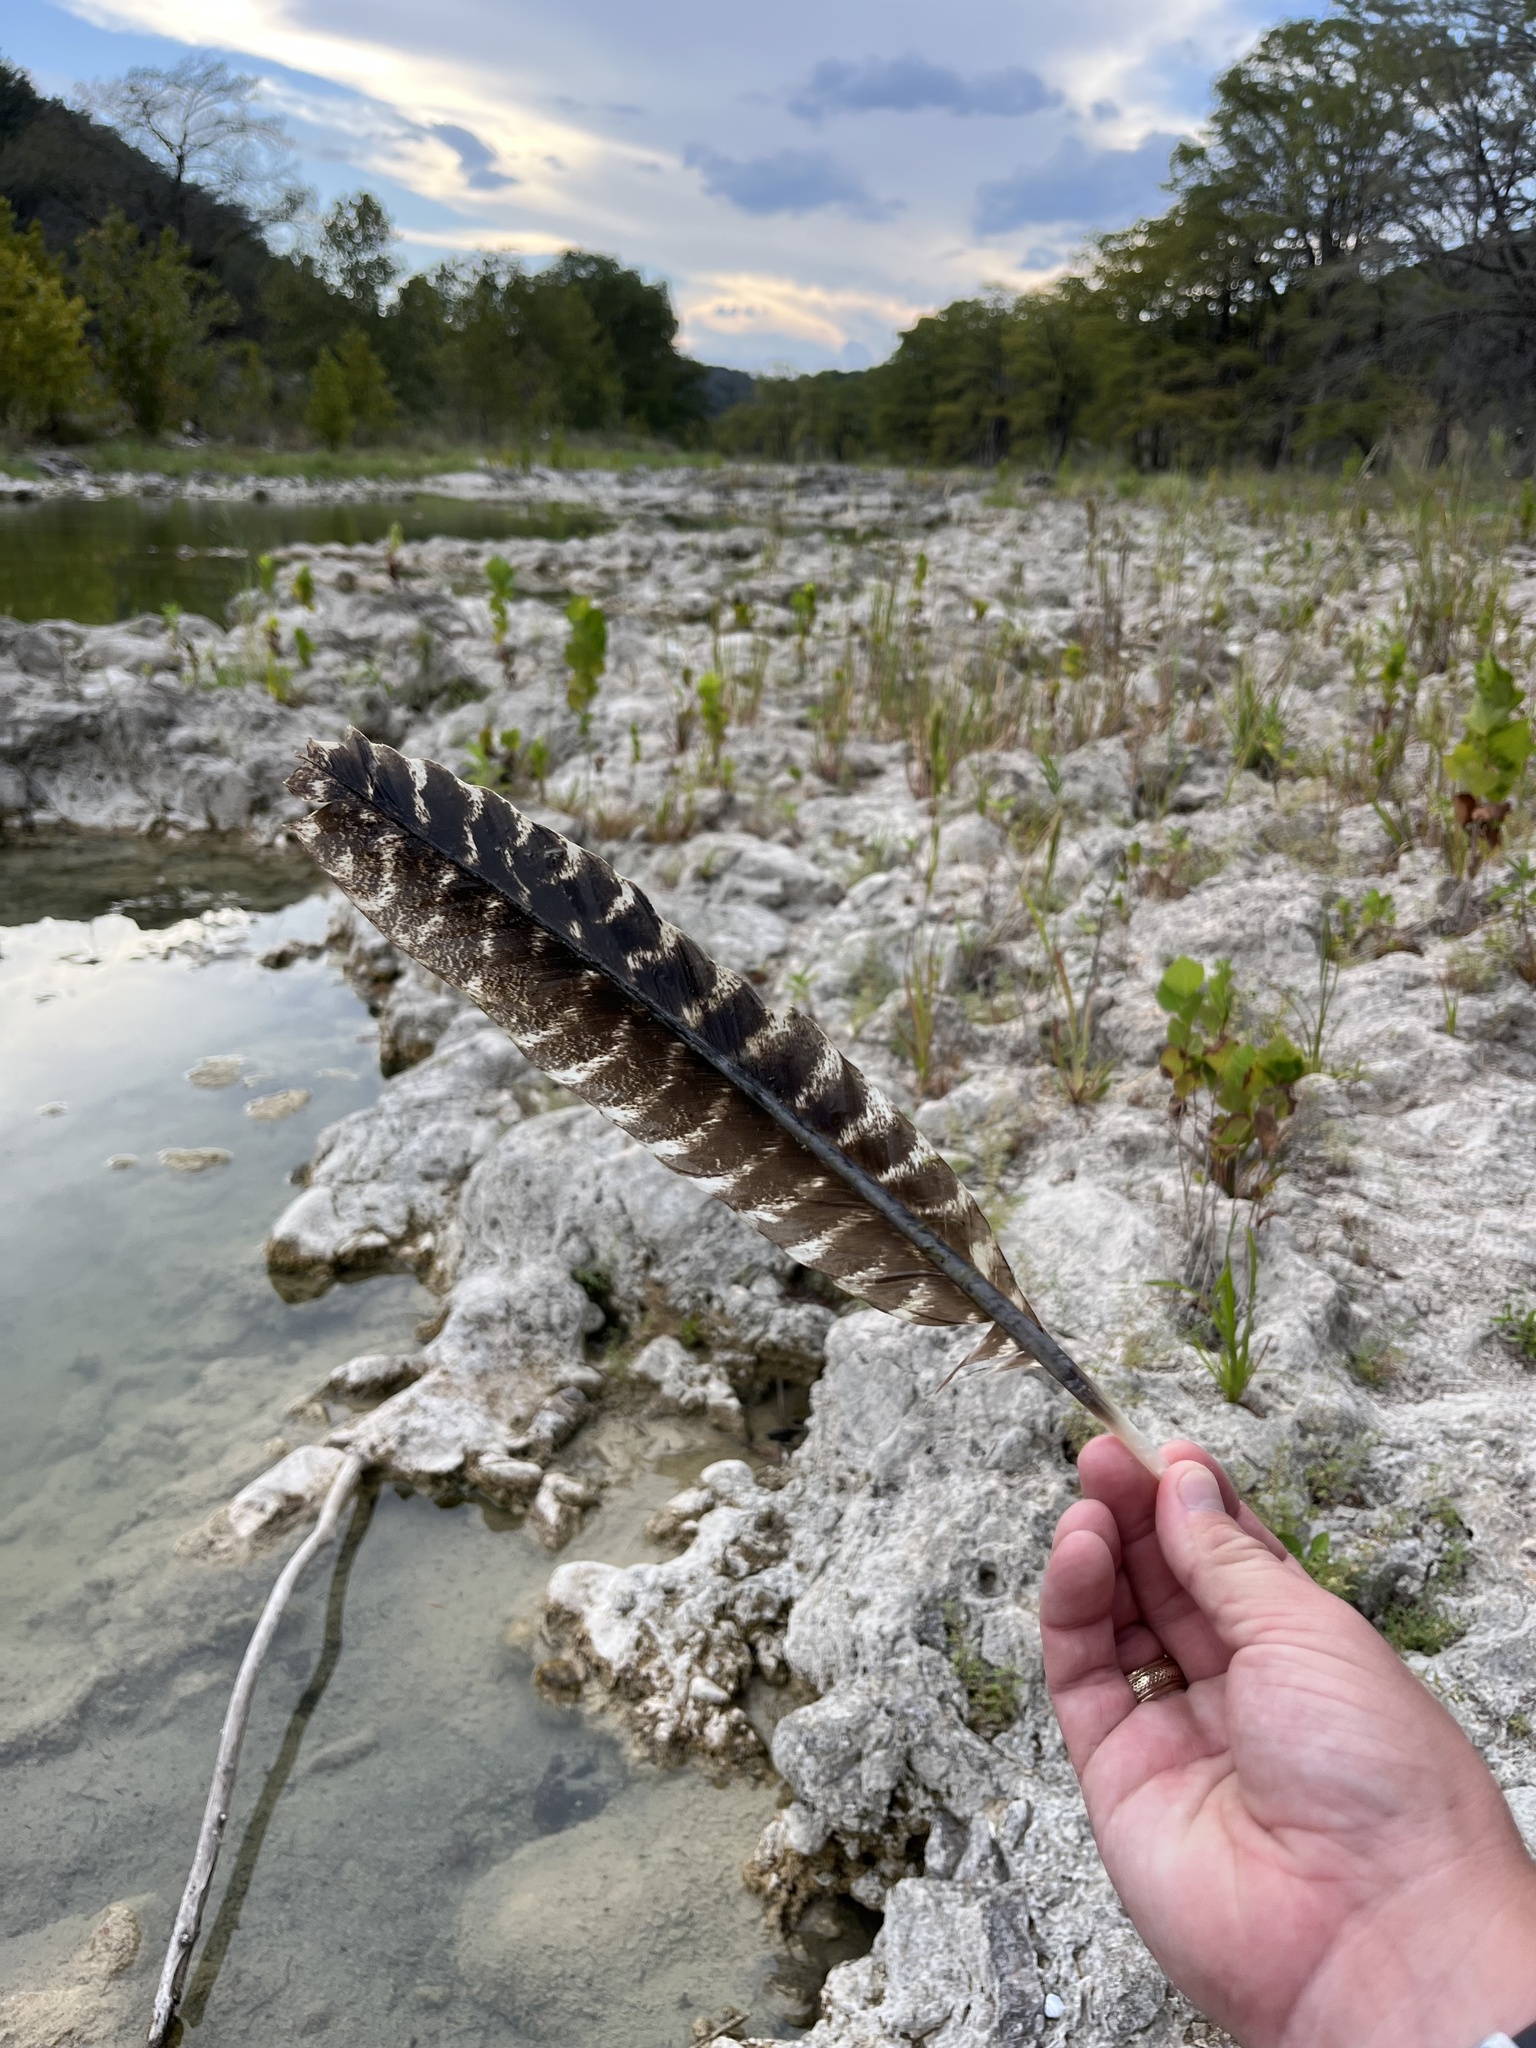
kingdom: Animalia
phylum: Chordata
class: Aves
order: Galliformes
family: Phasianidae
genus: Meleagris
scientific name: Meleagris gallopavo
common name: Wild turkey
